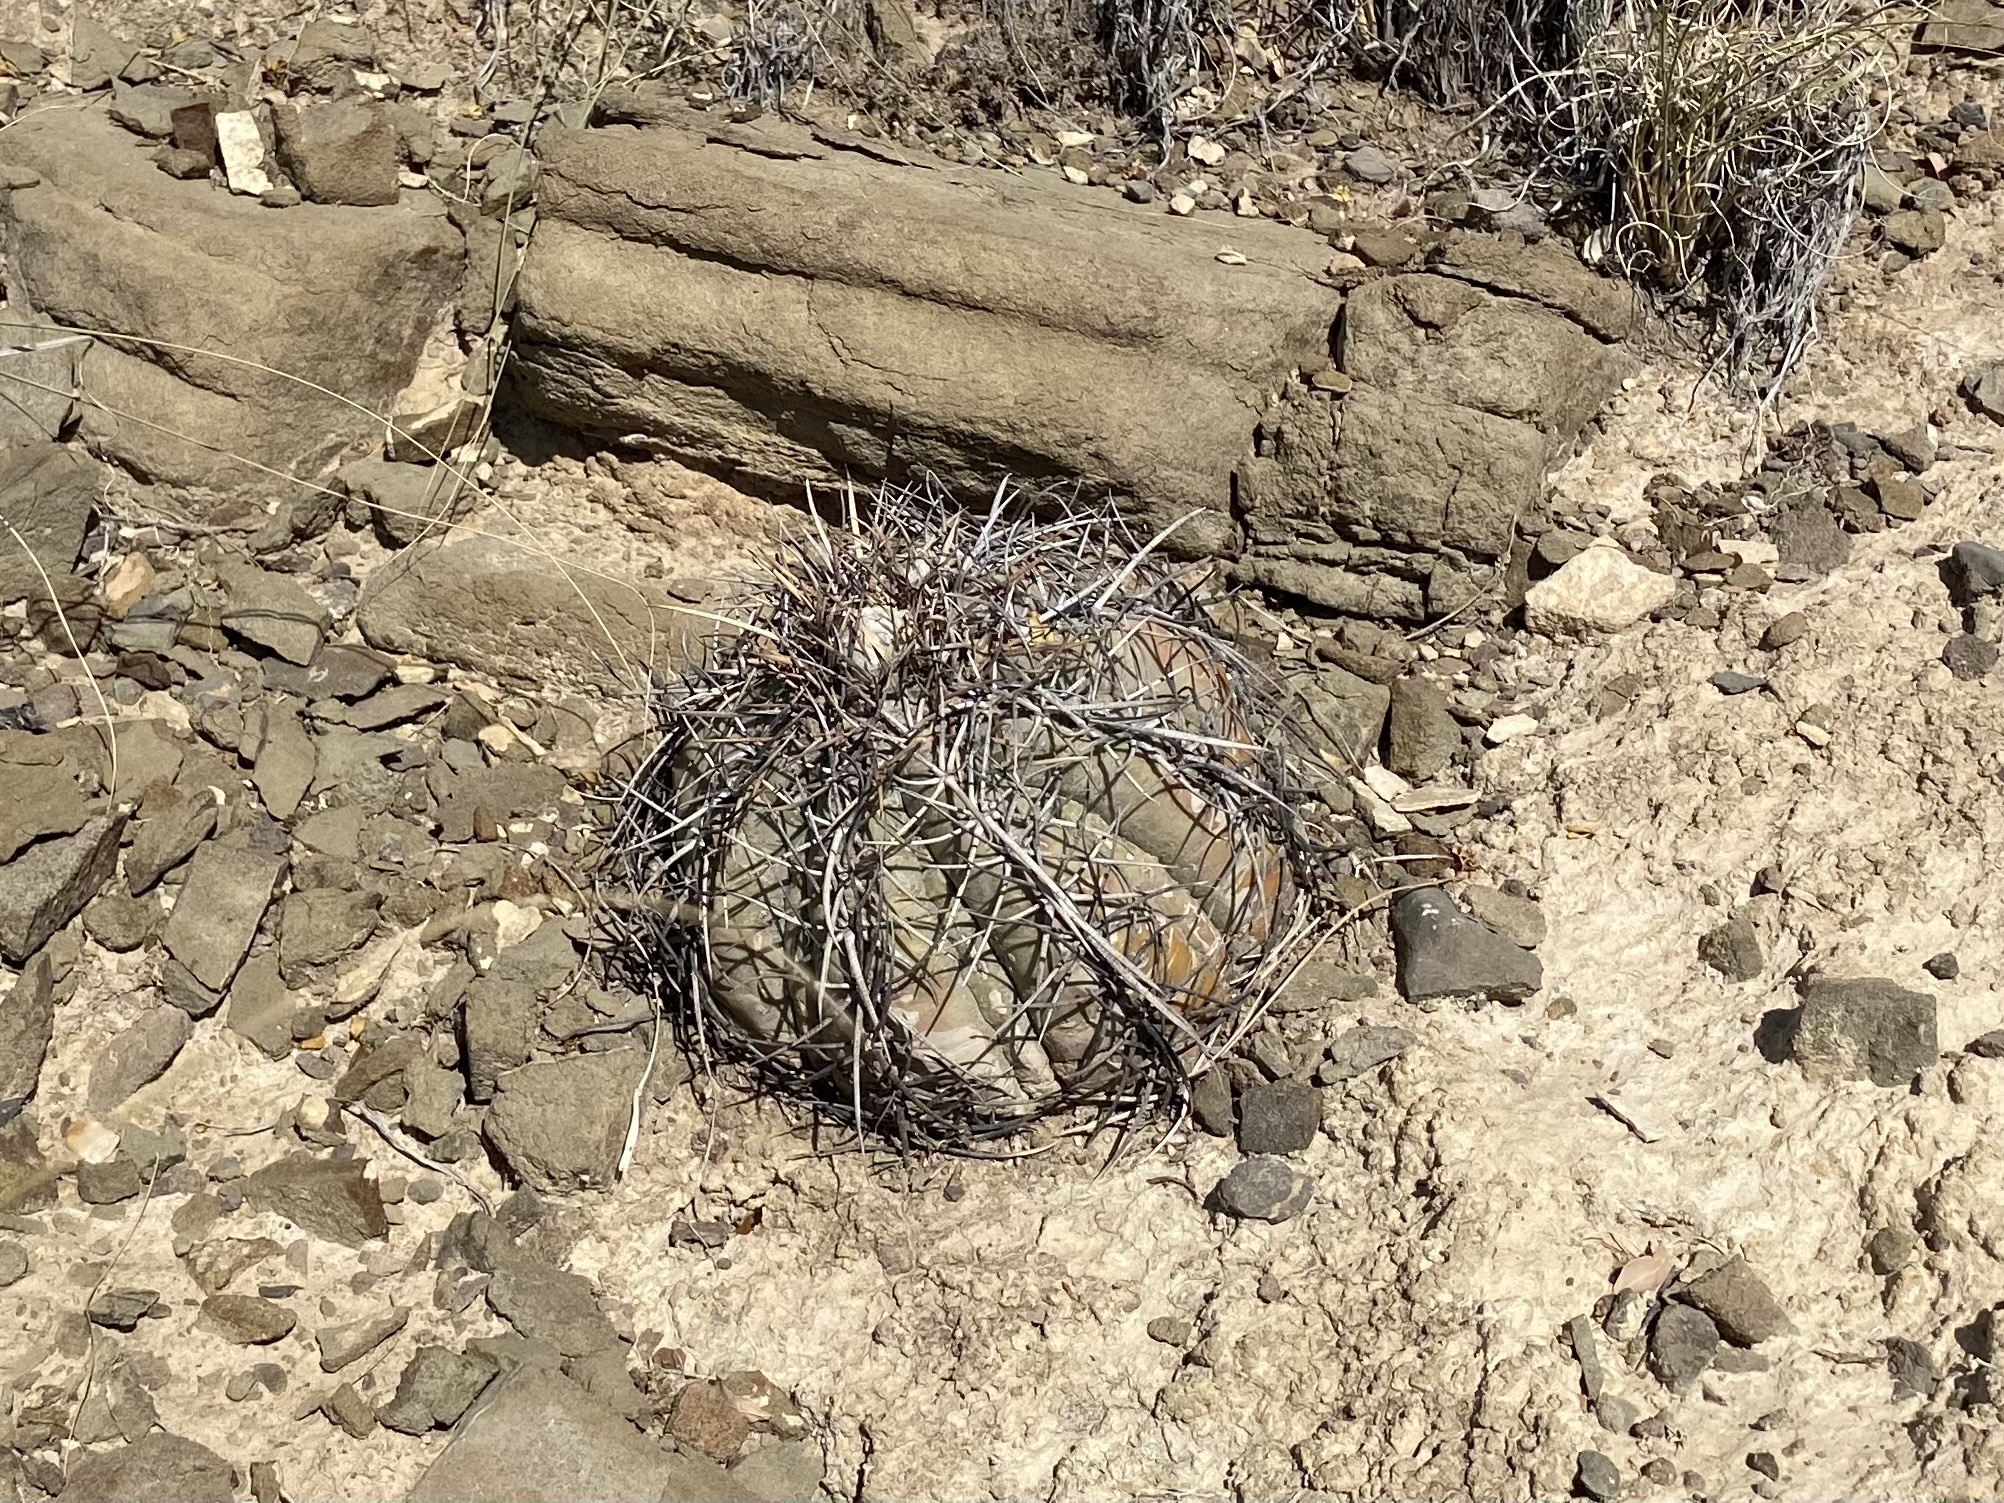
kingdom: Plantae
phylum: Tracheophyta
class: Magnoliopsida
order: Caryophyllales
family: Cactaceae
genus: Echinocactus
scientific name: Echinocactus horizonthalonius
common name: Devilshead
